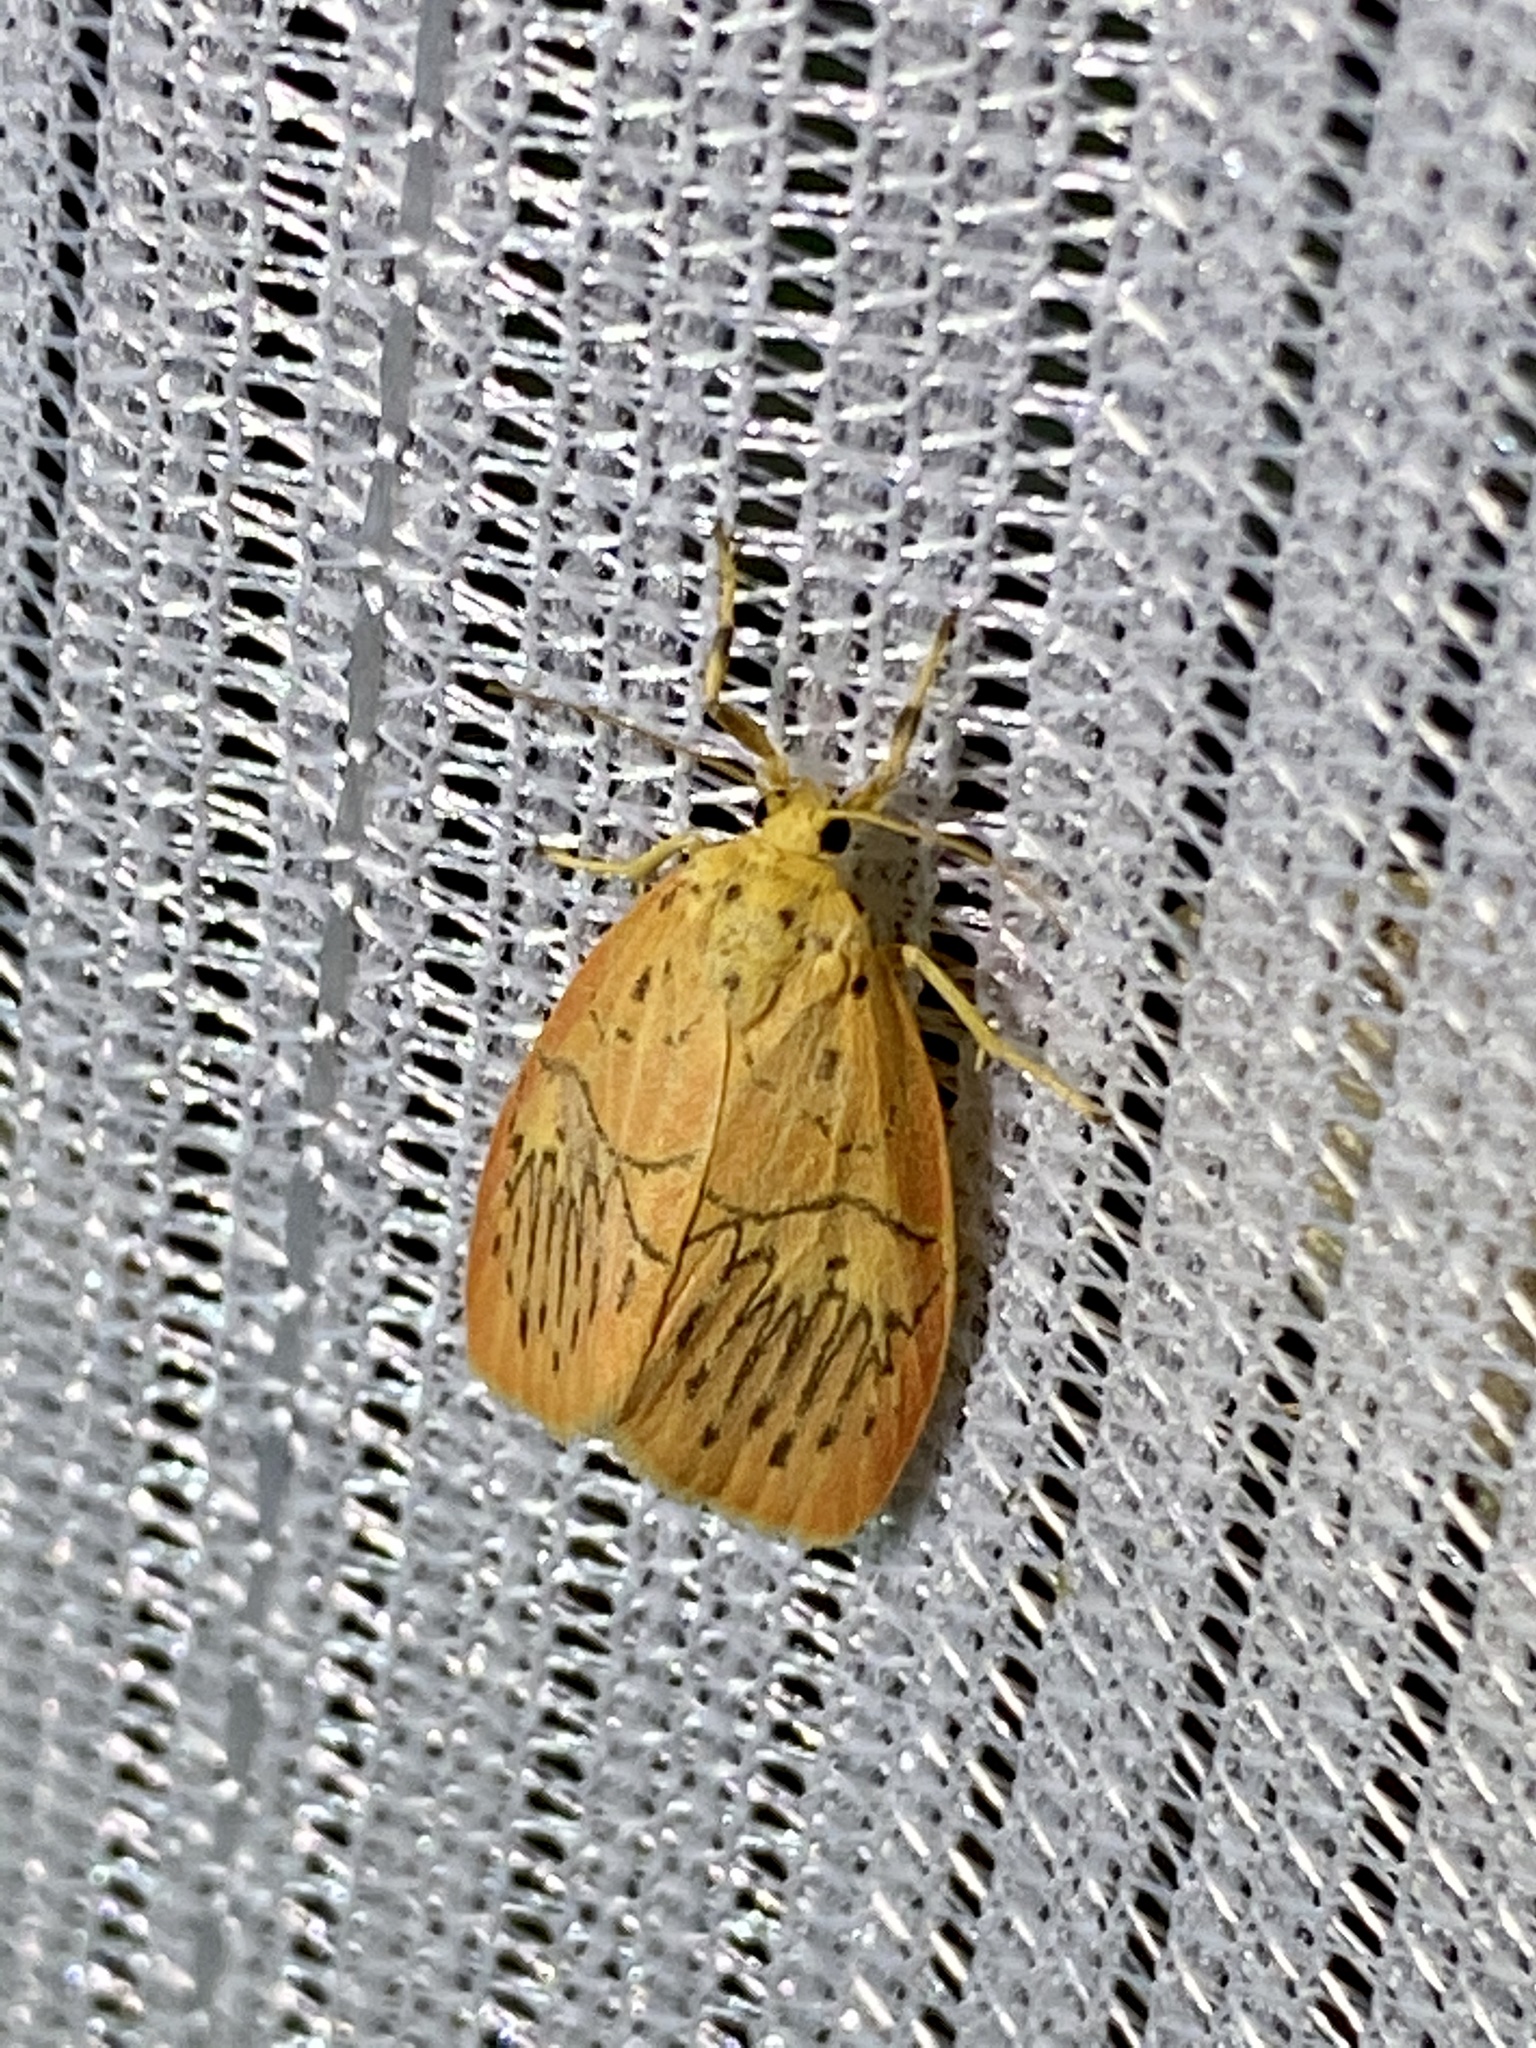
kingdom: Animalia
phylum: Arthropoda
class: Insecta
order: Lepidoptera
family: Erebidae
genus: Aberrasine
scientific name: Aberrasine aberrans
